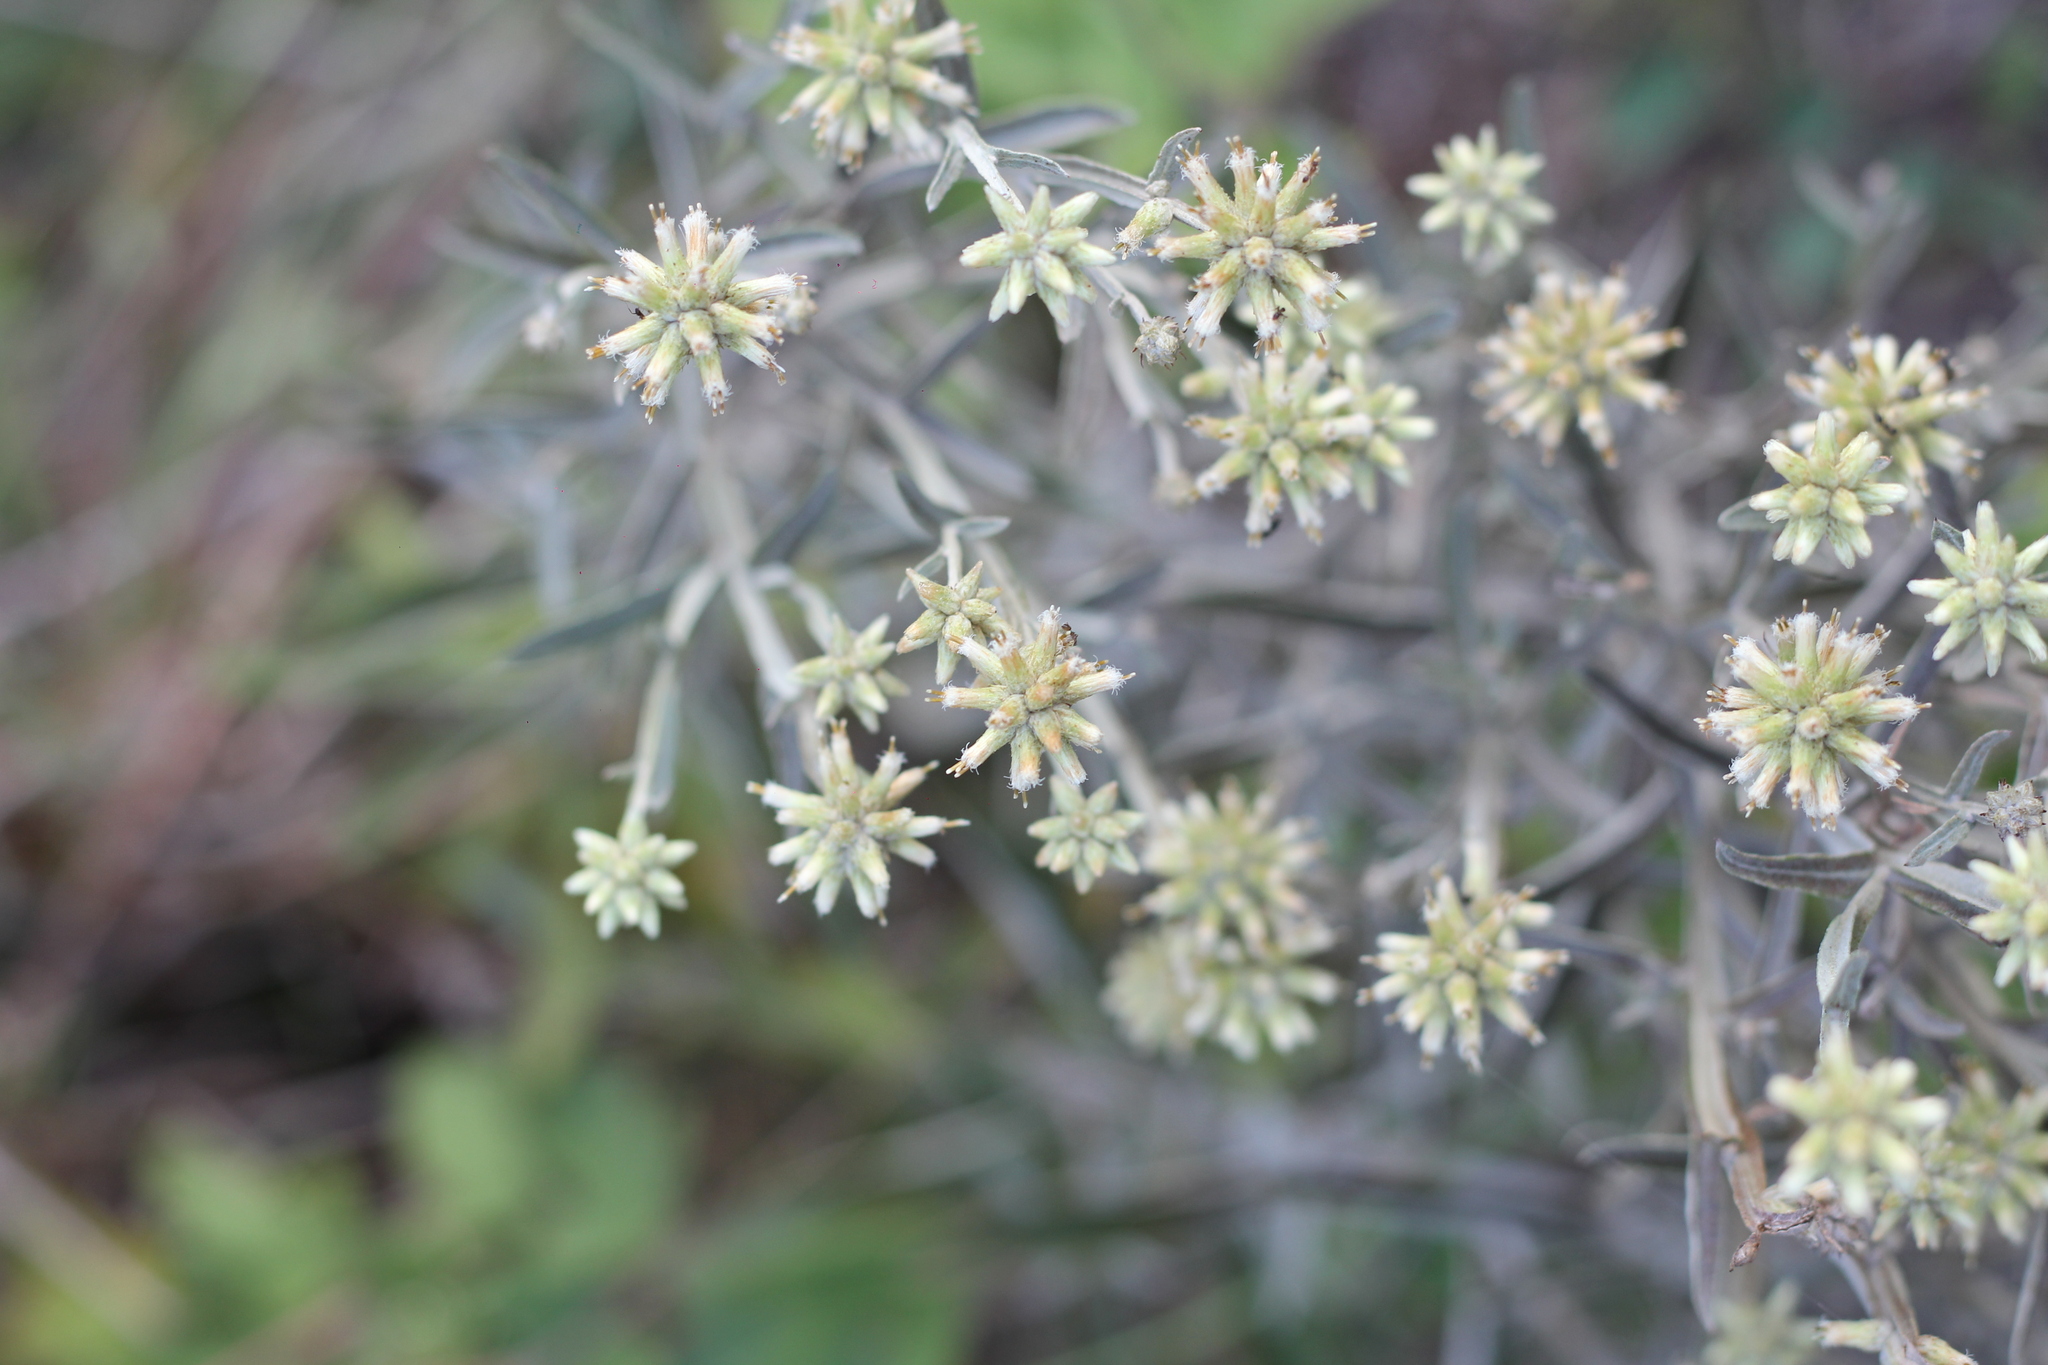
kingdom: Plantae
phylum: Tracheophyta
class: Magnoliopsida
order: Asterales
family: Asteraceae
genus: Pterocaulon
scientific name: Pterocaulon angustifolium
